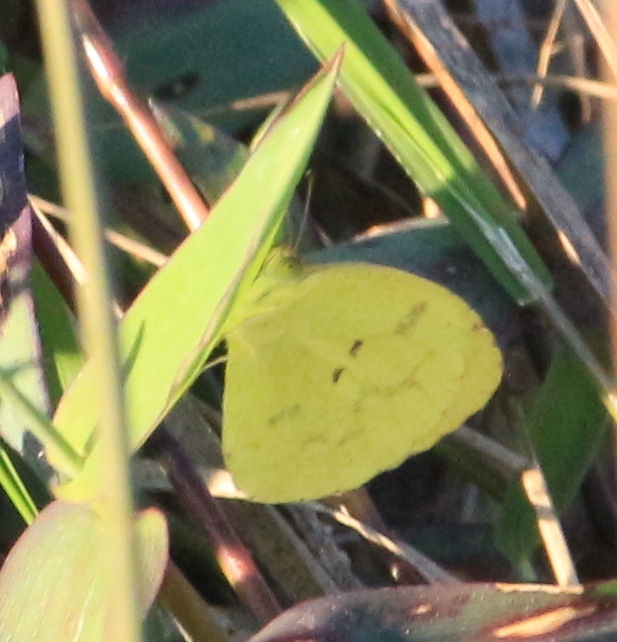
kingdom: Animalia
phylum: Arthropoda
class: Insecta
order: Lepidoptera
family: Pieridae
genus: Pyrisitia
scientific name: Pyrisitia nise
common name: Mimosa yellow
